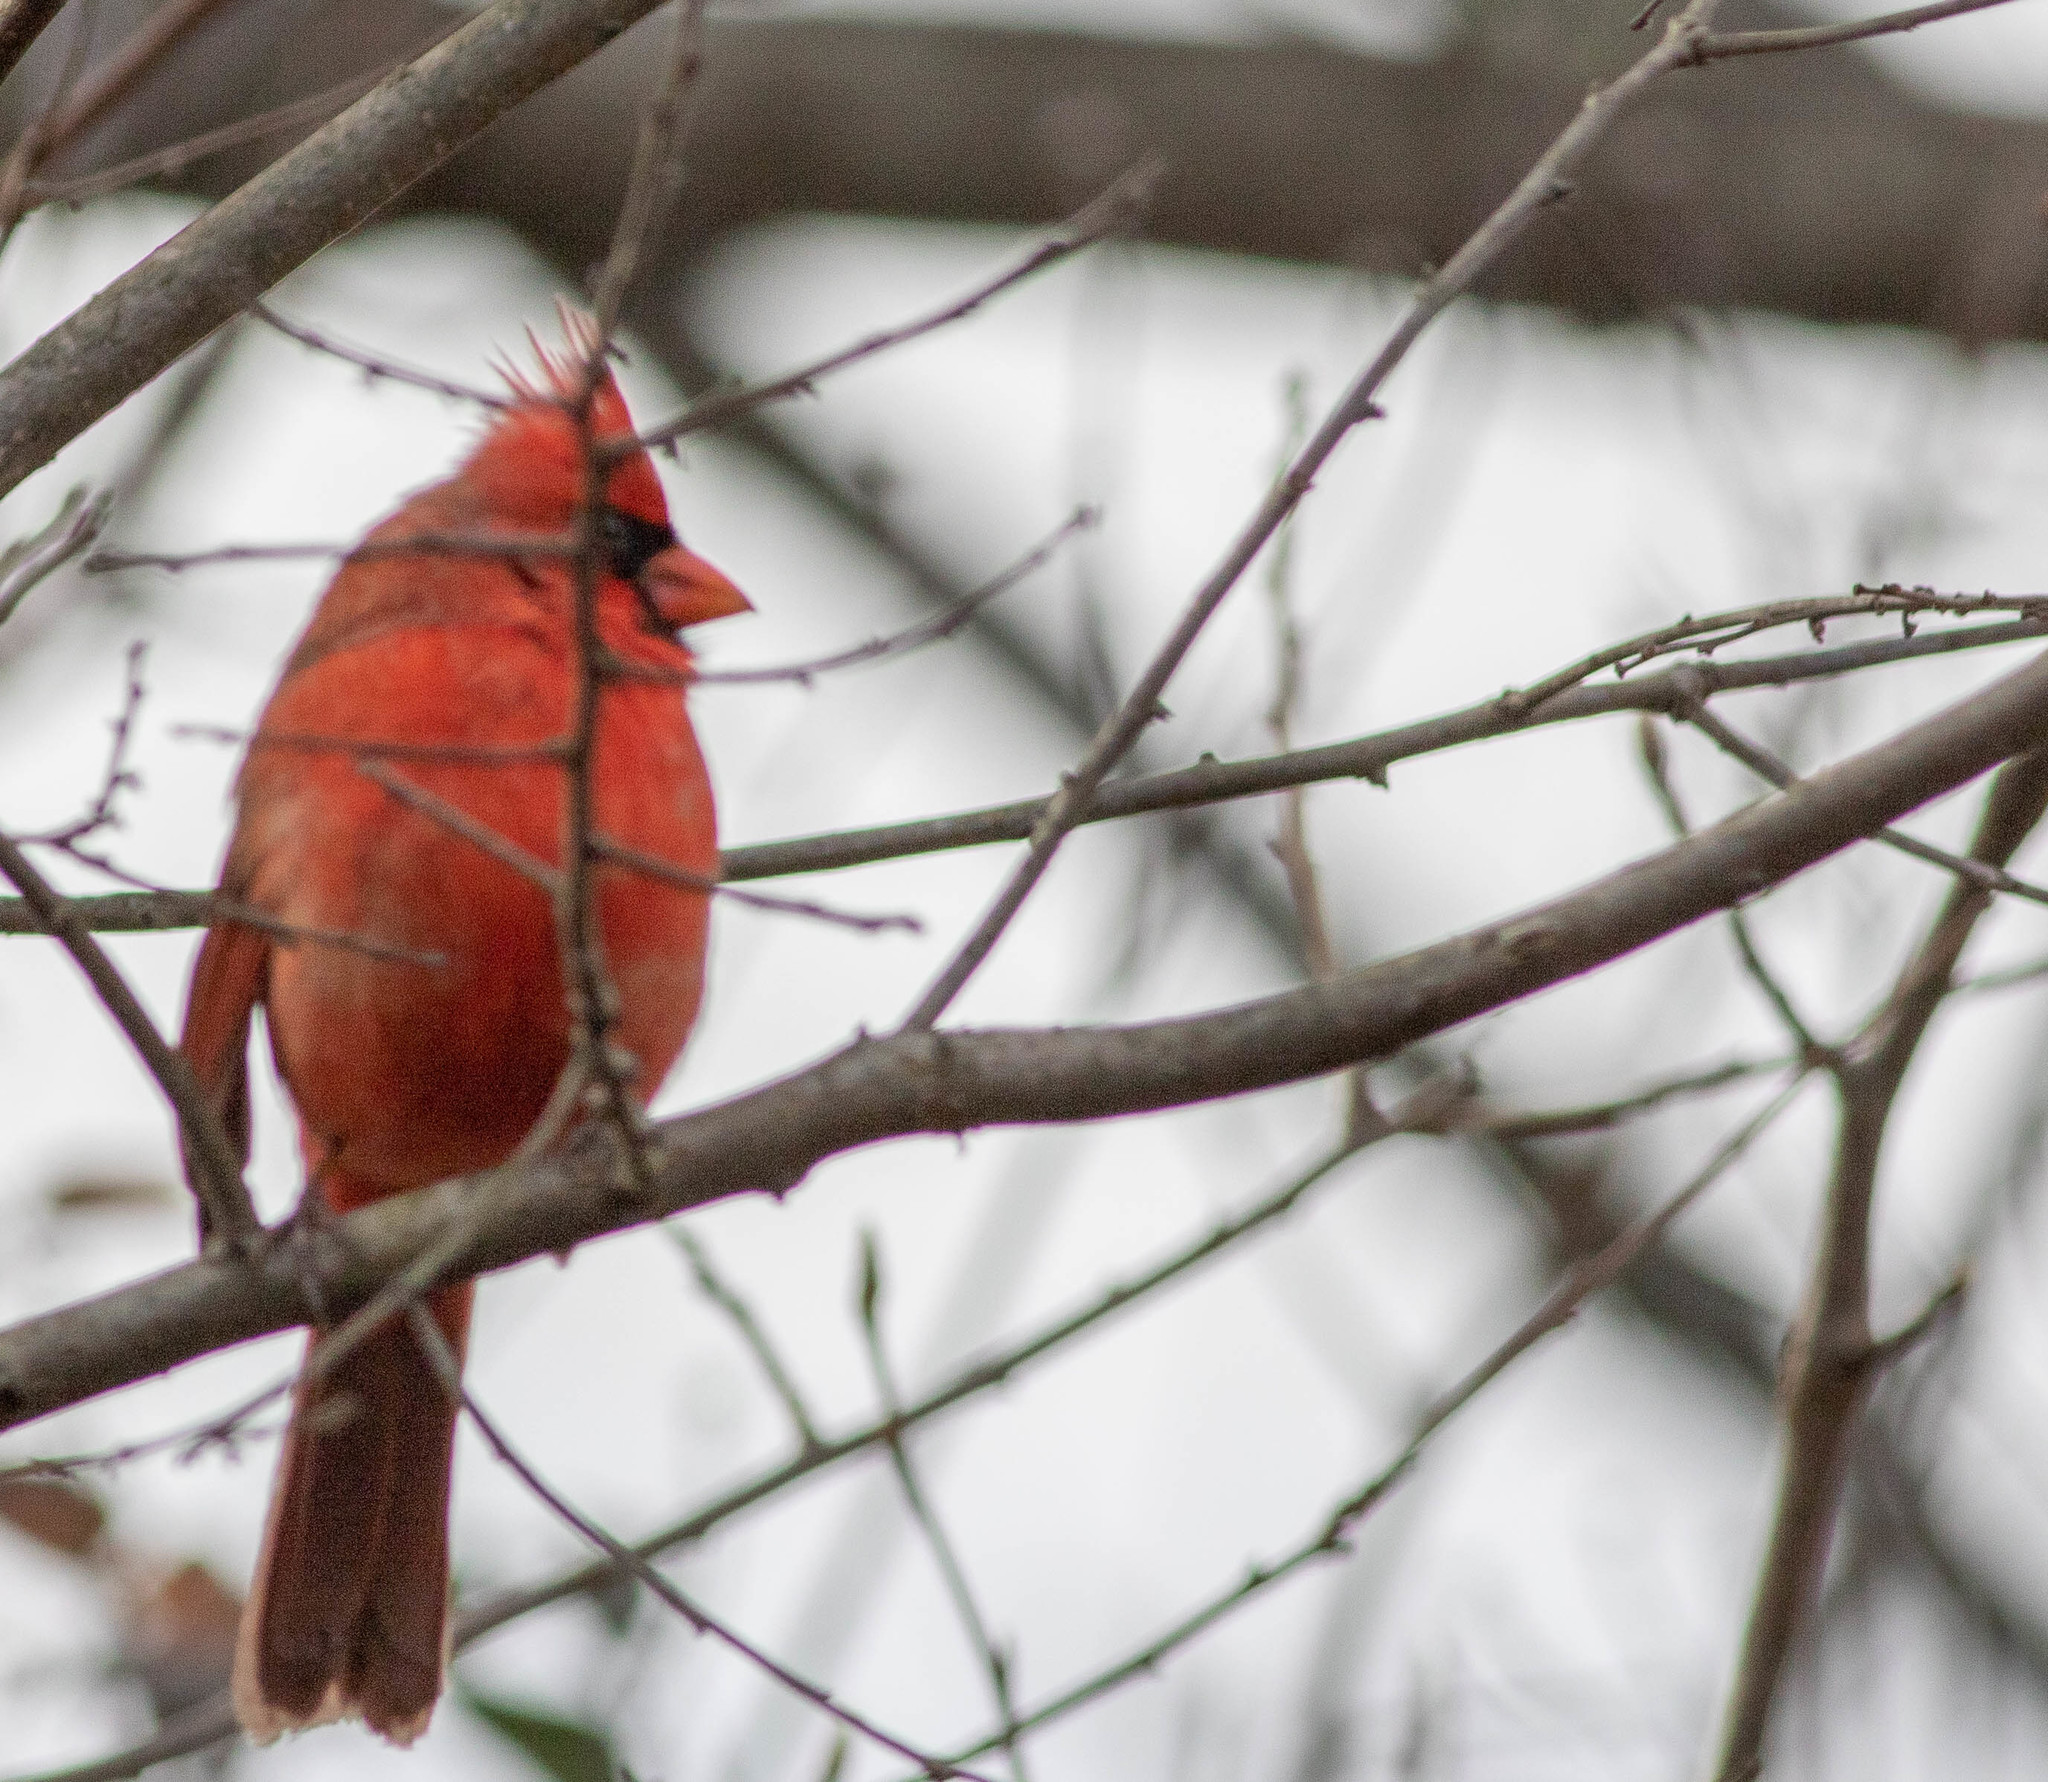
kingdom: Animalia
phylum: Chordata
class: Aves
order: Passeriformes
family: Cardinalidae
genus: Cardinalis
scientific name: Cardinalis cardinalis
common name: Northern cardinal
